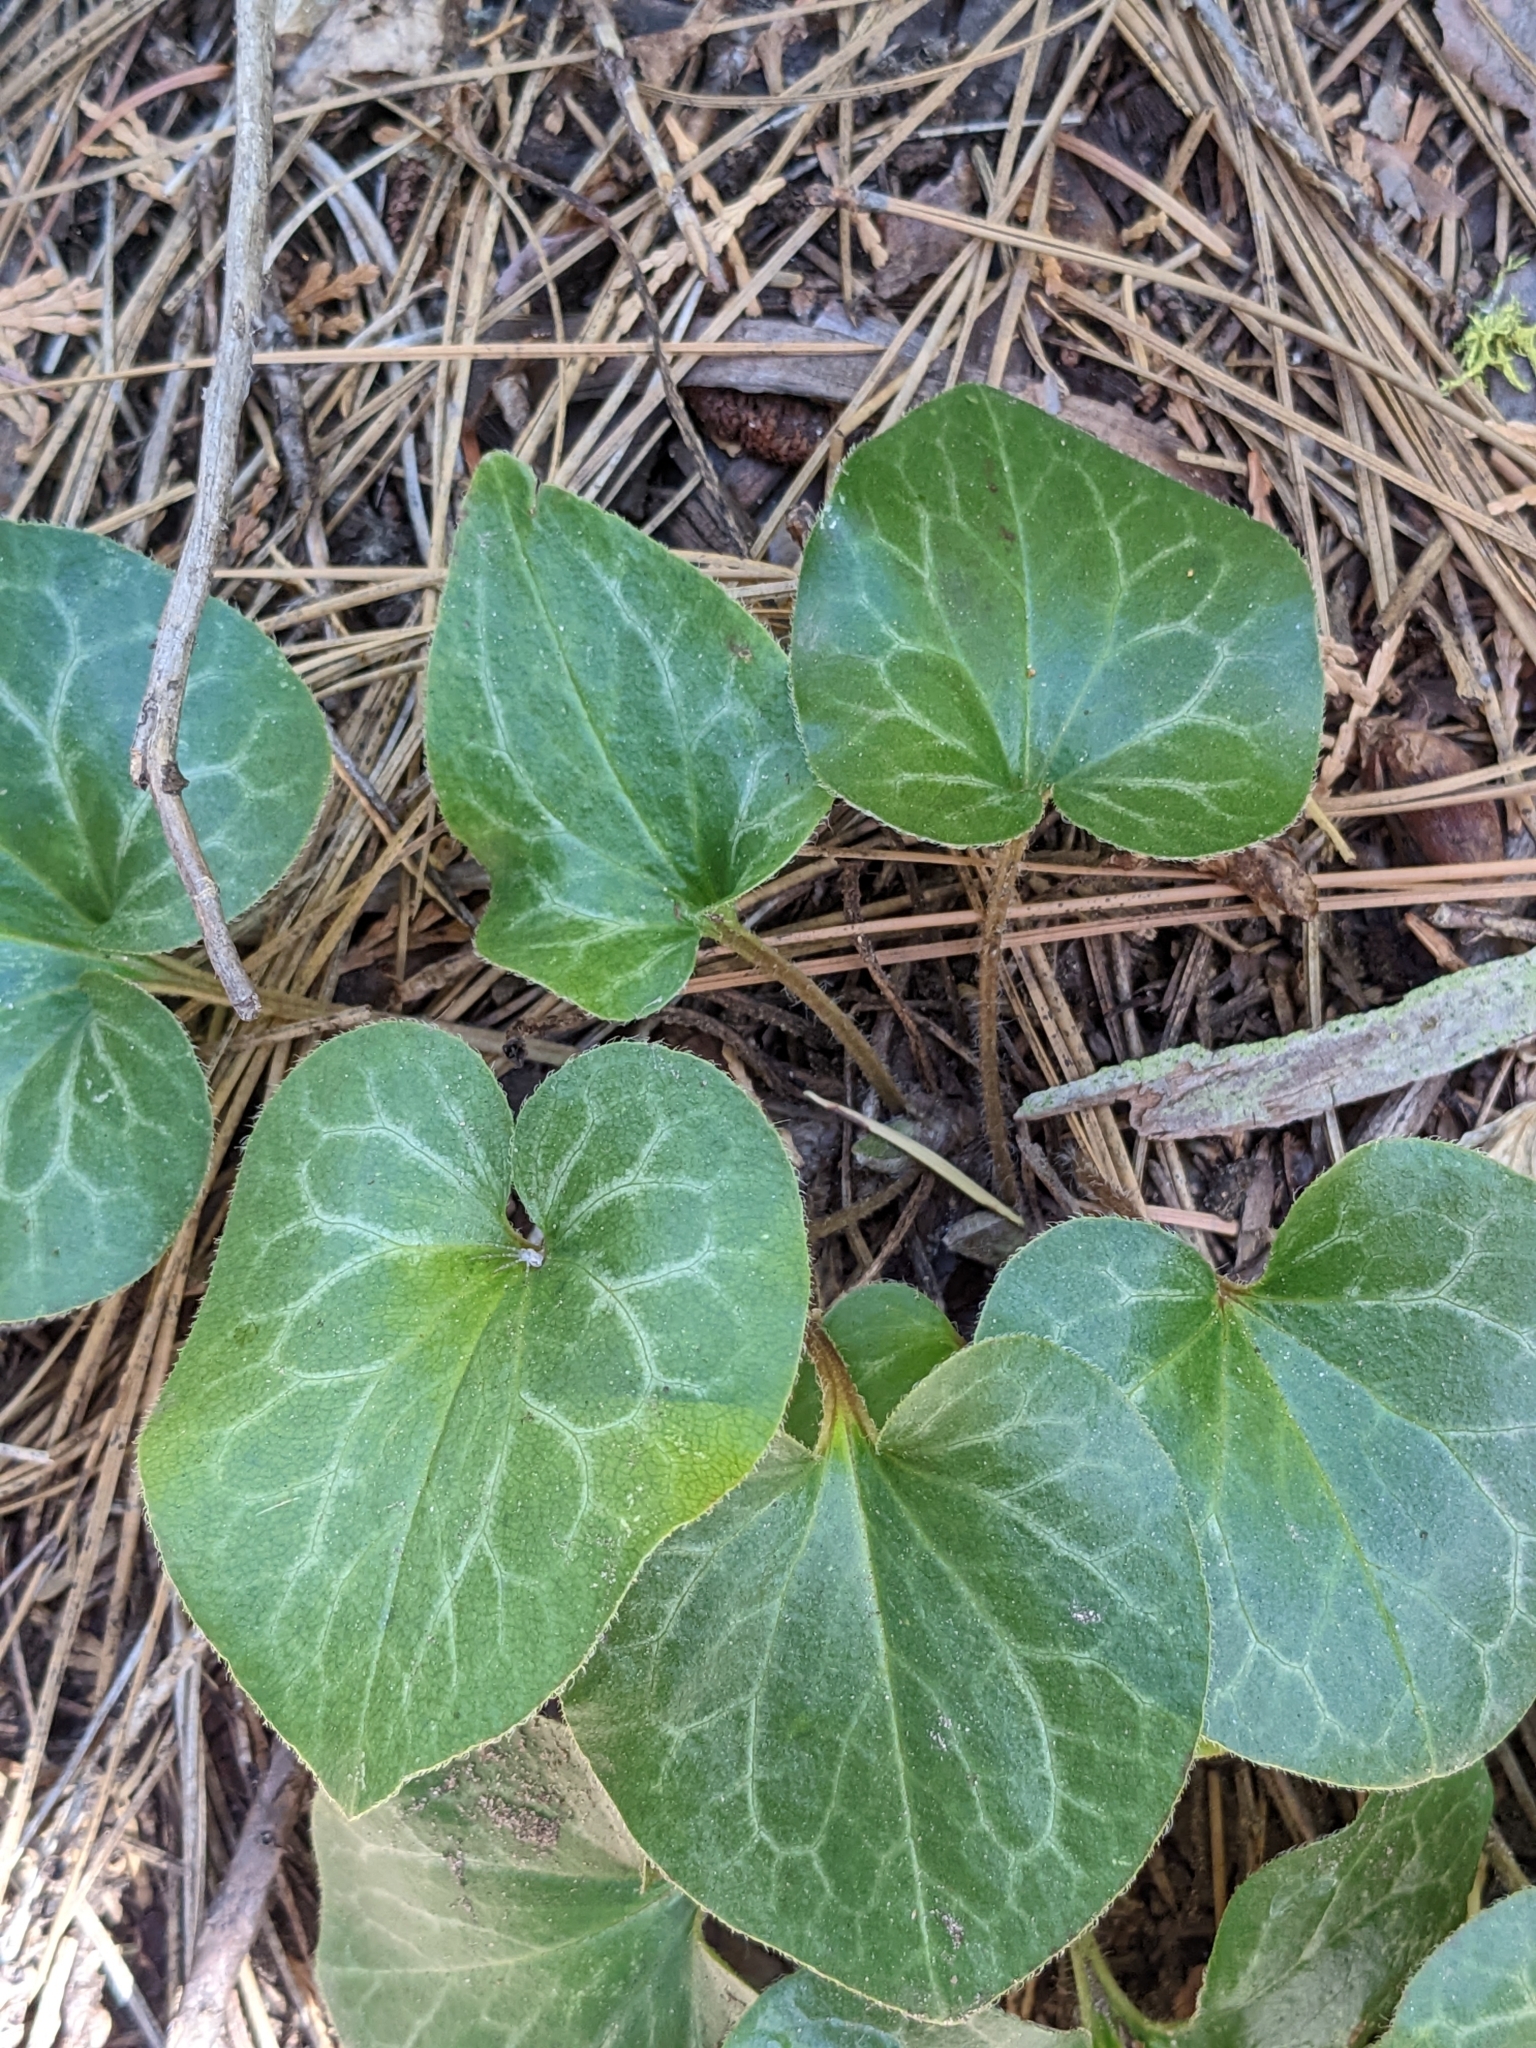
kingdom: Plantae
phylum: Tracheophyta
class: Magnoliopsida
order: Piperales
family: Aristolochiaceae
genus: Asarum
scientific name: Asarum hartwegii
